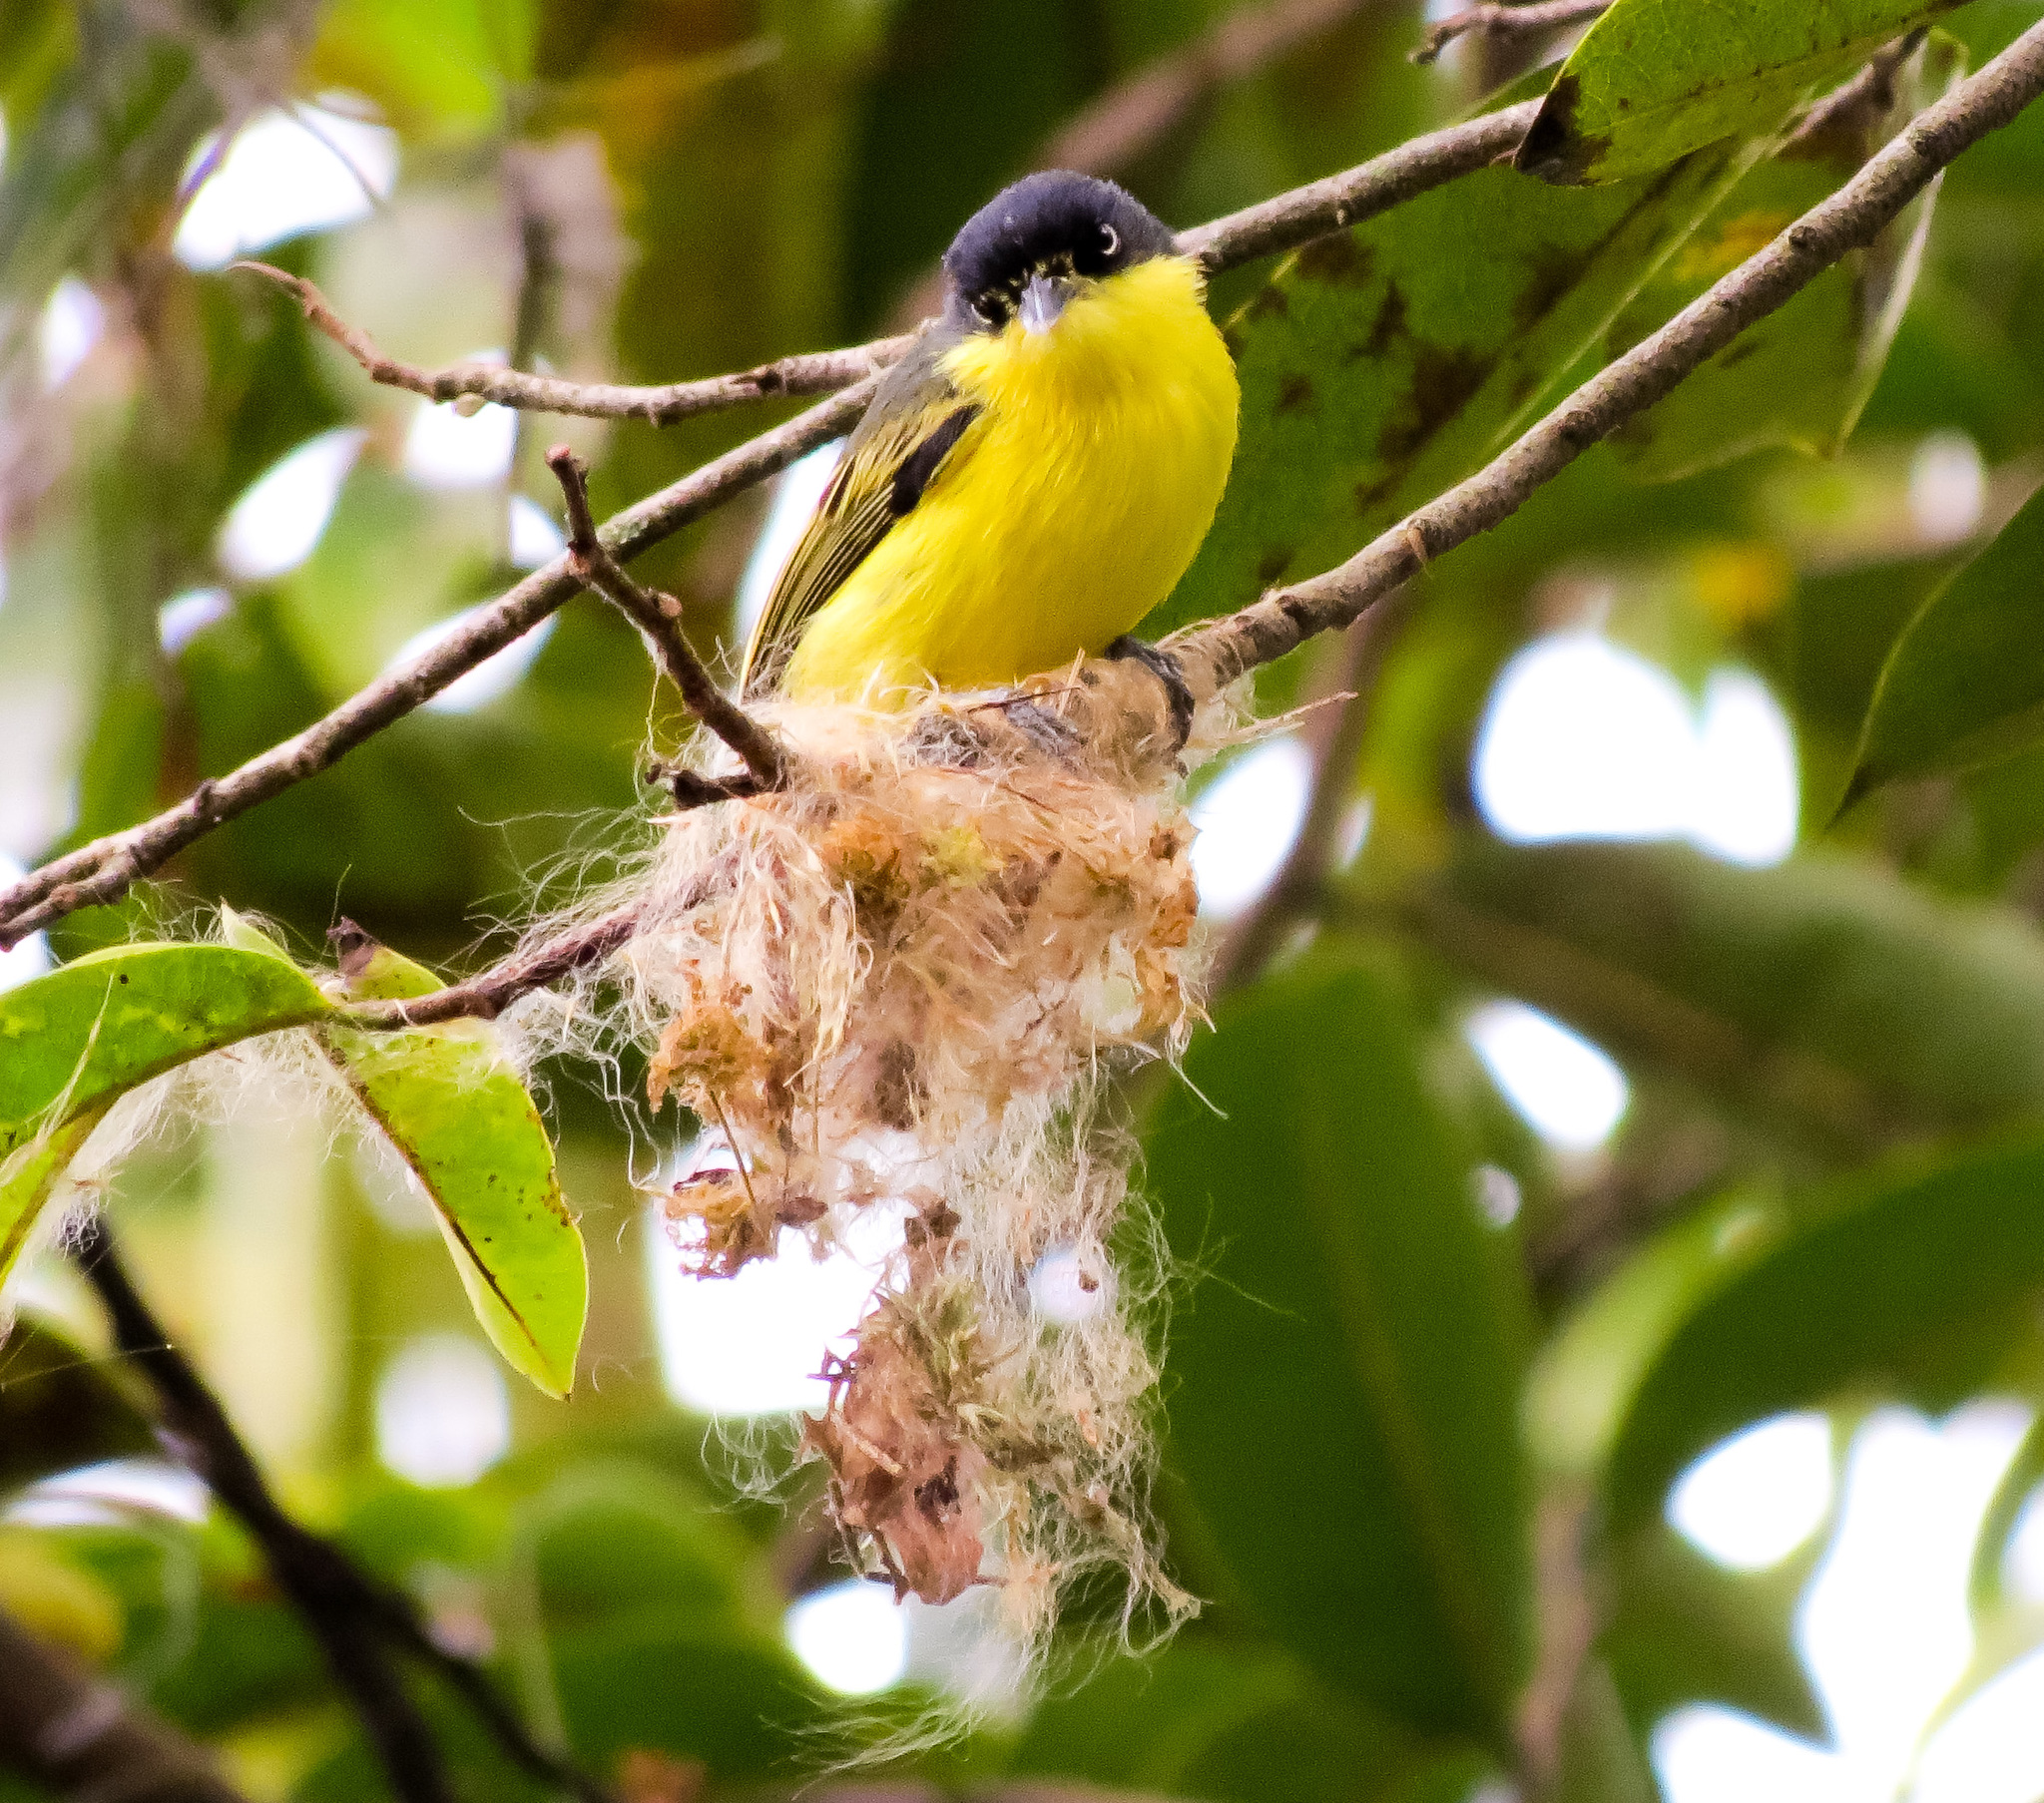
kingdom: Animalia
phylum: Chordata
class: Aves
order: Passeriformes
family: Tyrannidae
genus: Todirostrum
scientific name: Todirostrum cinereum
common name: Common tody-flycatcher
